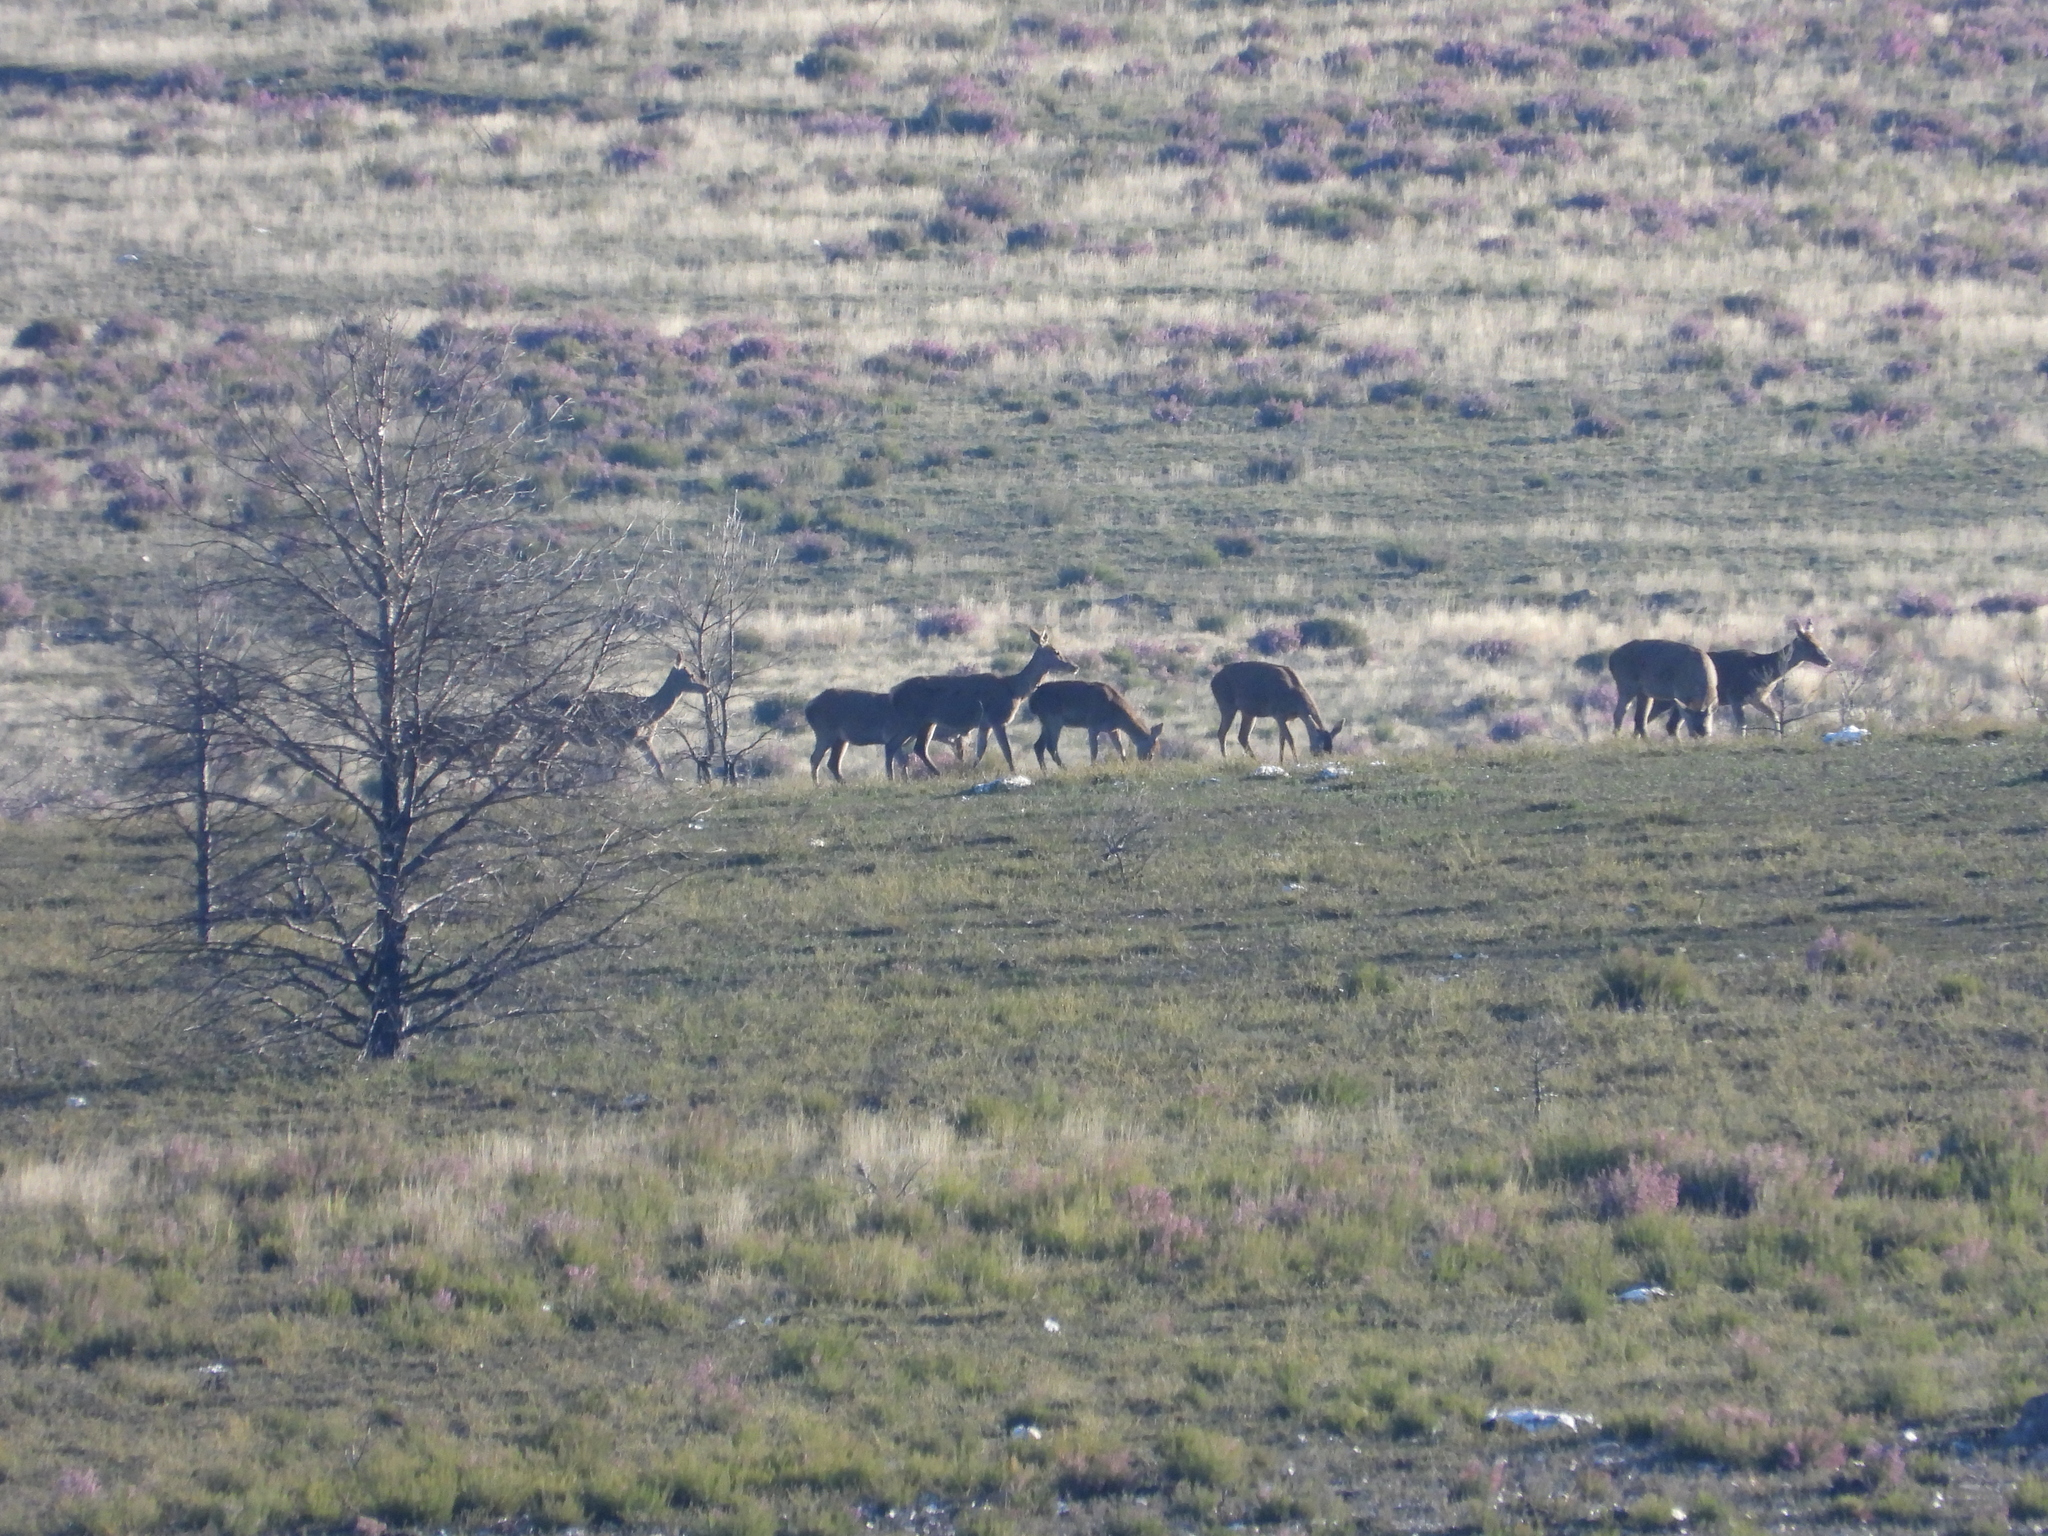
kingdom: Animalia
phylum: Chordata
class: Mammalia
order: Artiodactyla
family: Cervidae
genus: Cervus
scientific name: Cervus elaphus
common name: Red deer
